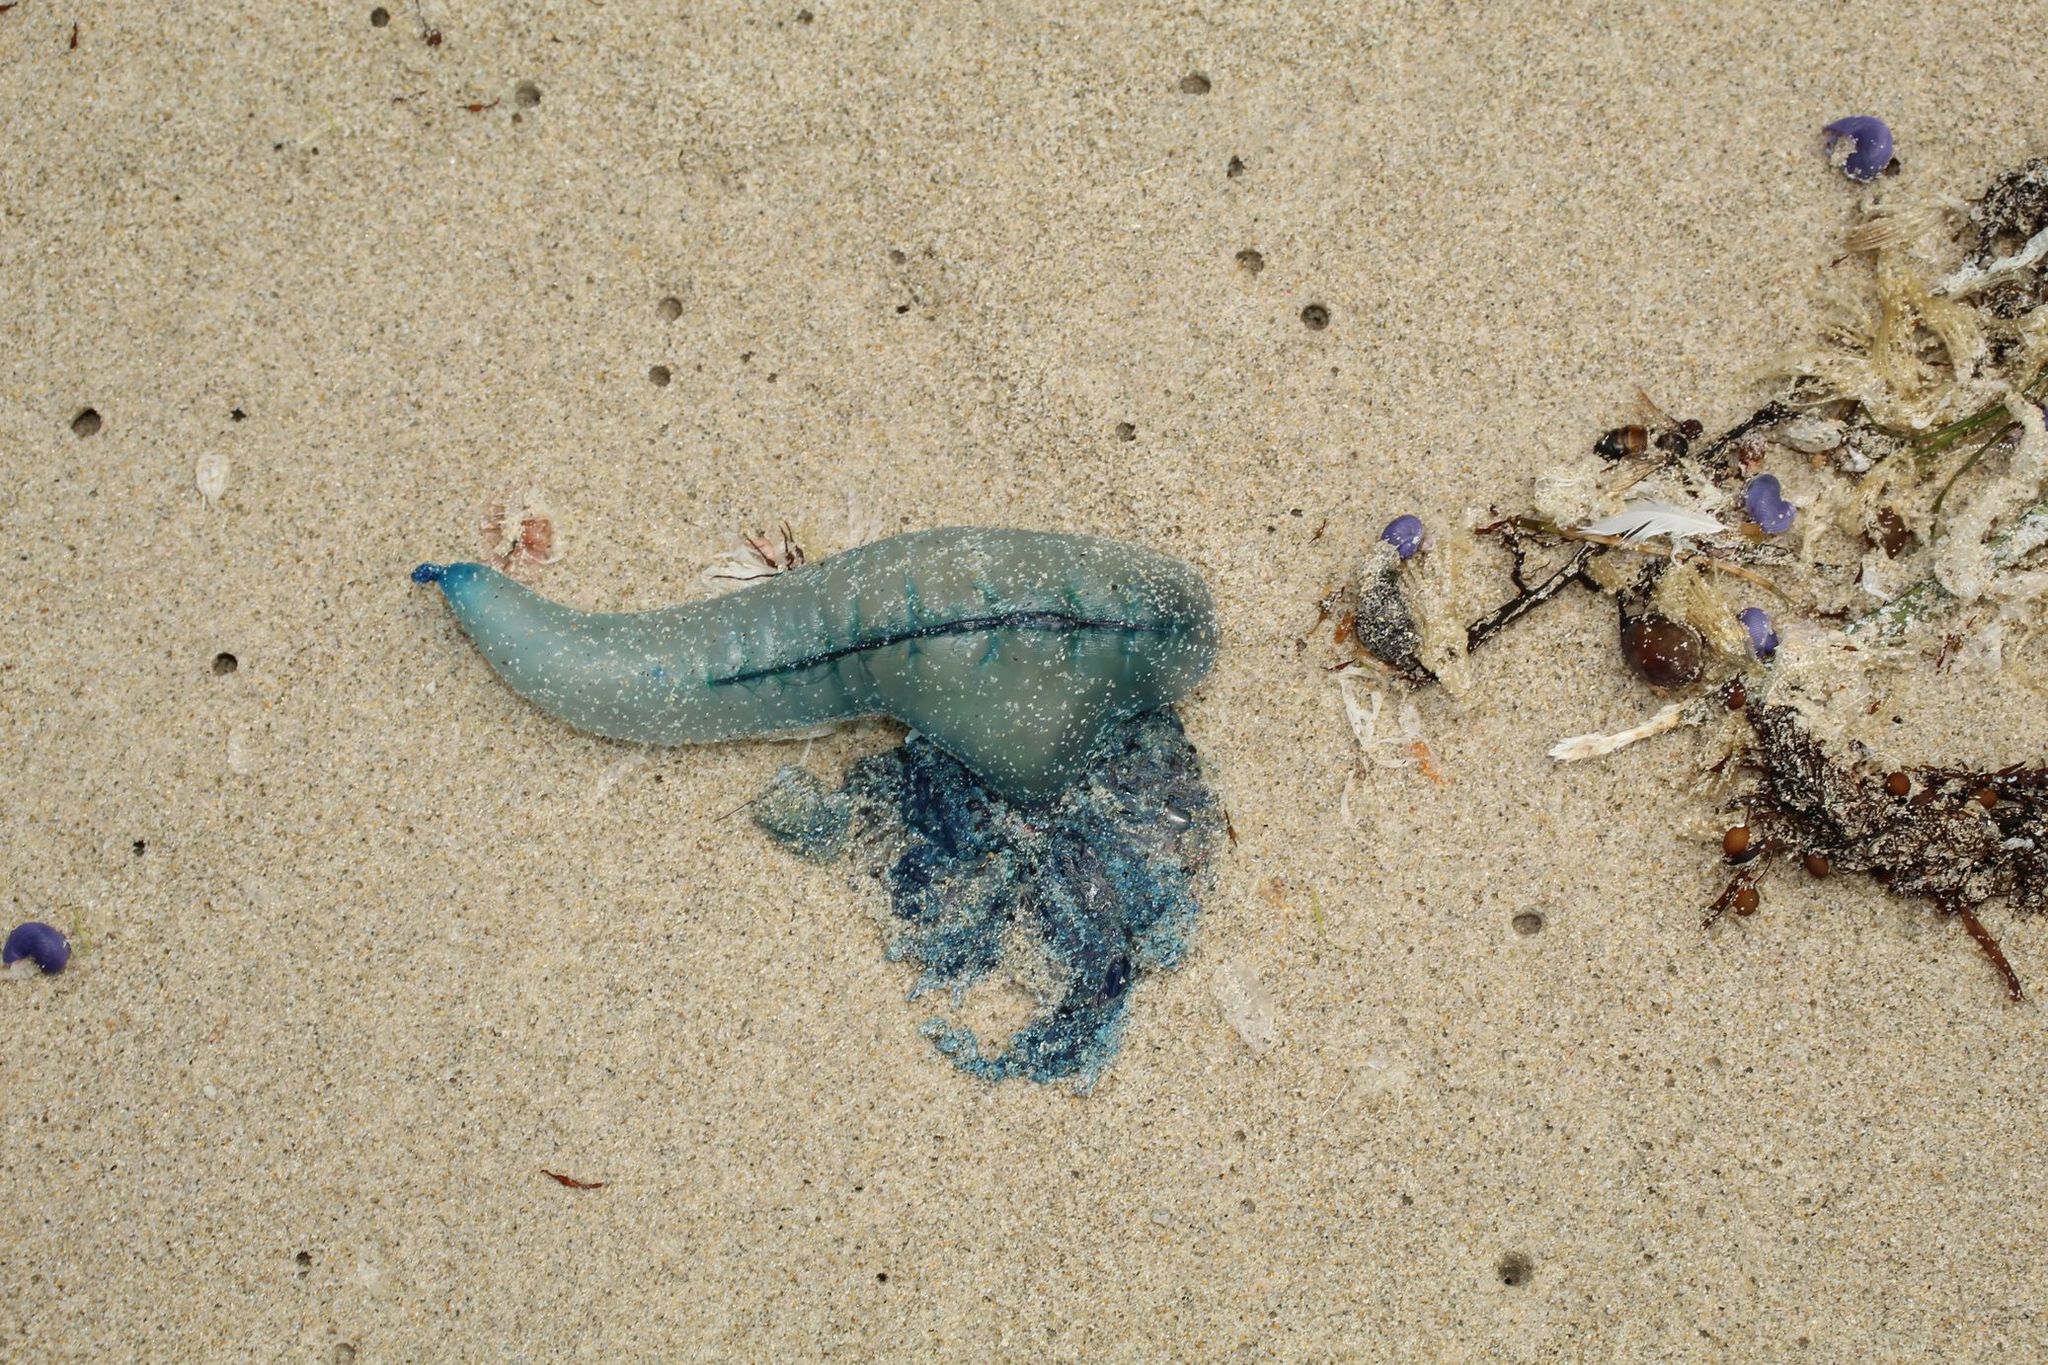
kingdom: Animalia
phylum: Cnidaria
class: Hydrozoa
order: Siphonophorae
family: Physaliidae
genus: Physalia
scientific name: Physalia physalis
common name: Portuguese man-of-war
